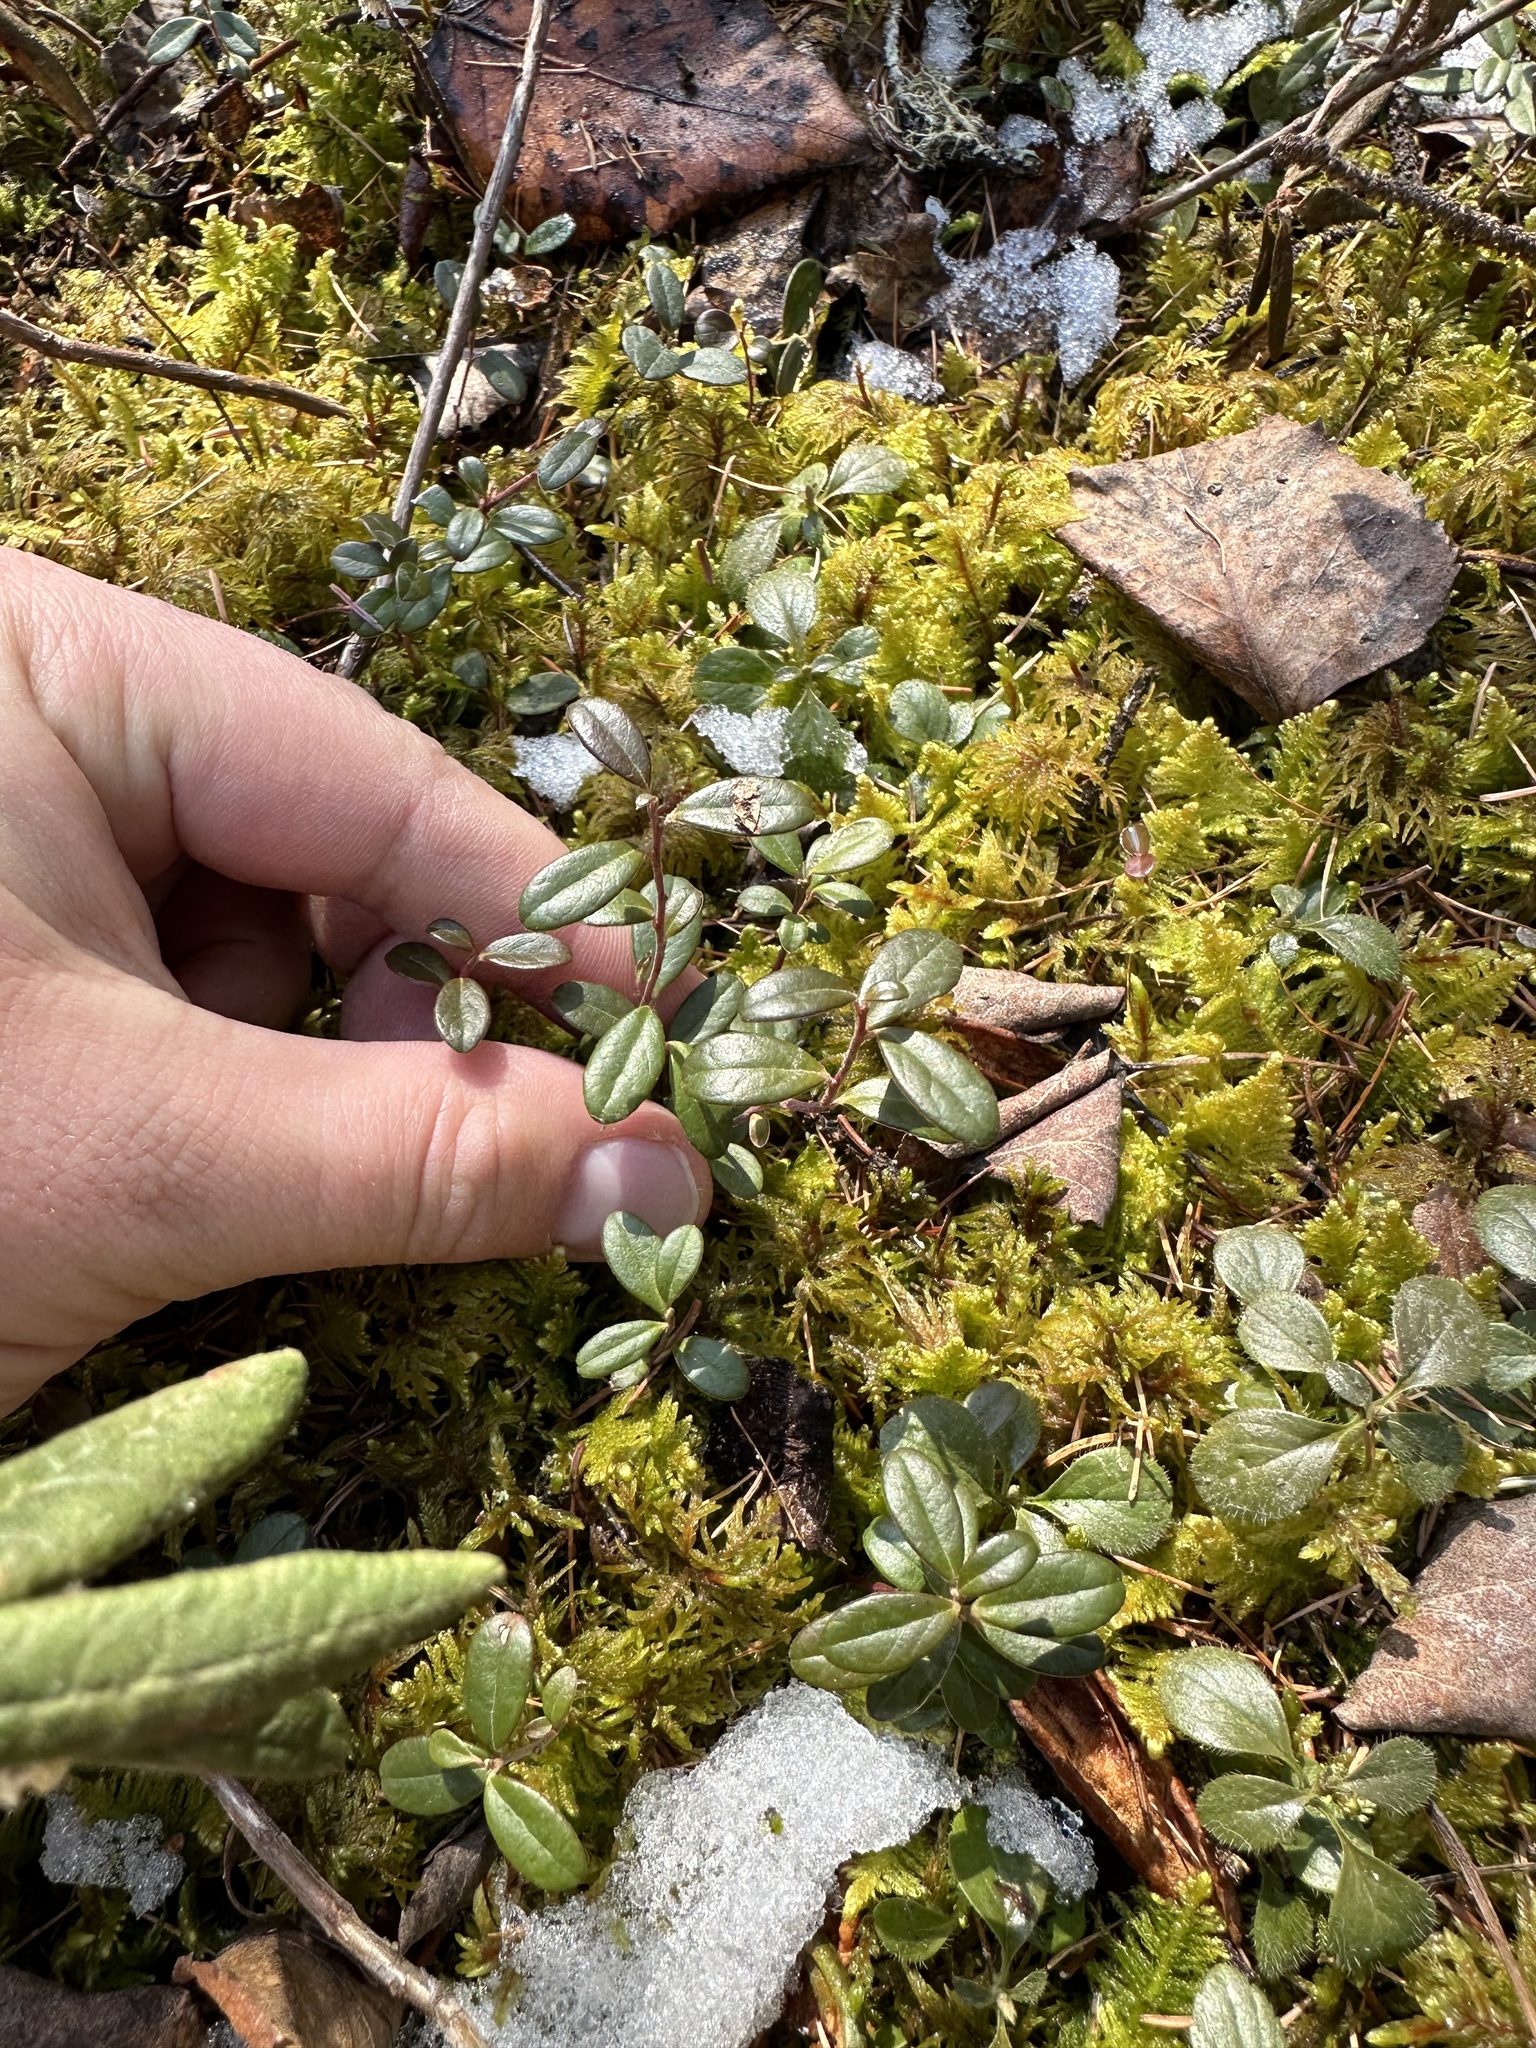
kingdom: Plantae
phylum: Tracheophyta
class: Magnoliopsida
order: Ericales
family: Ericaceae
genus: Vaccinium
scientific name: Vaccinium vitis-idaea
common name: Cowberry
